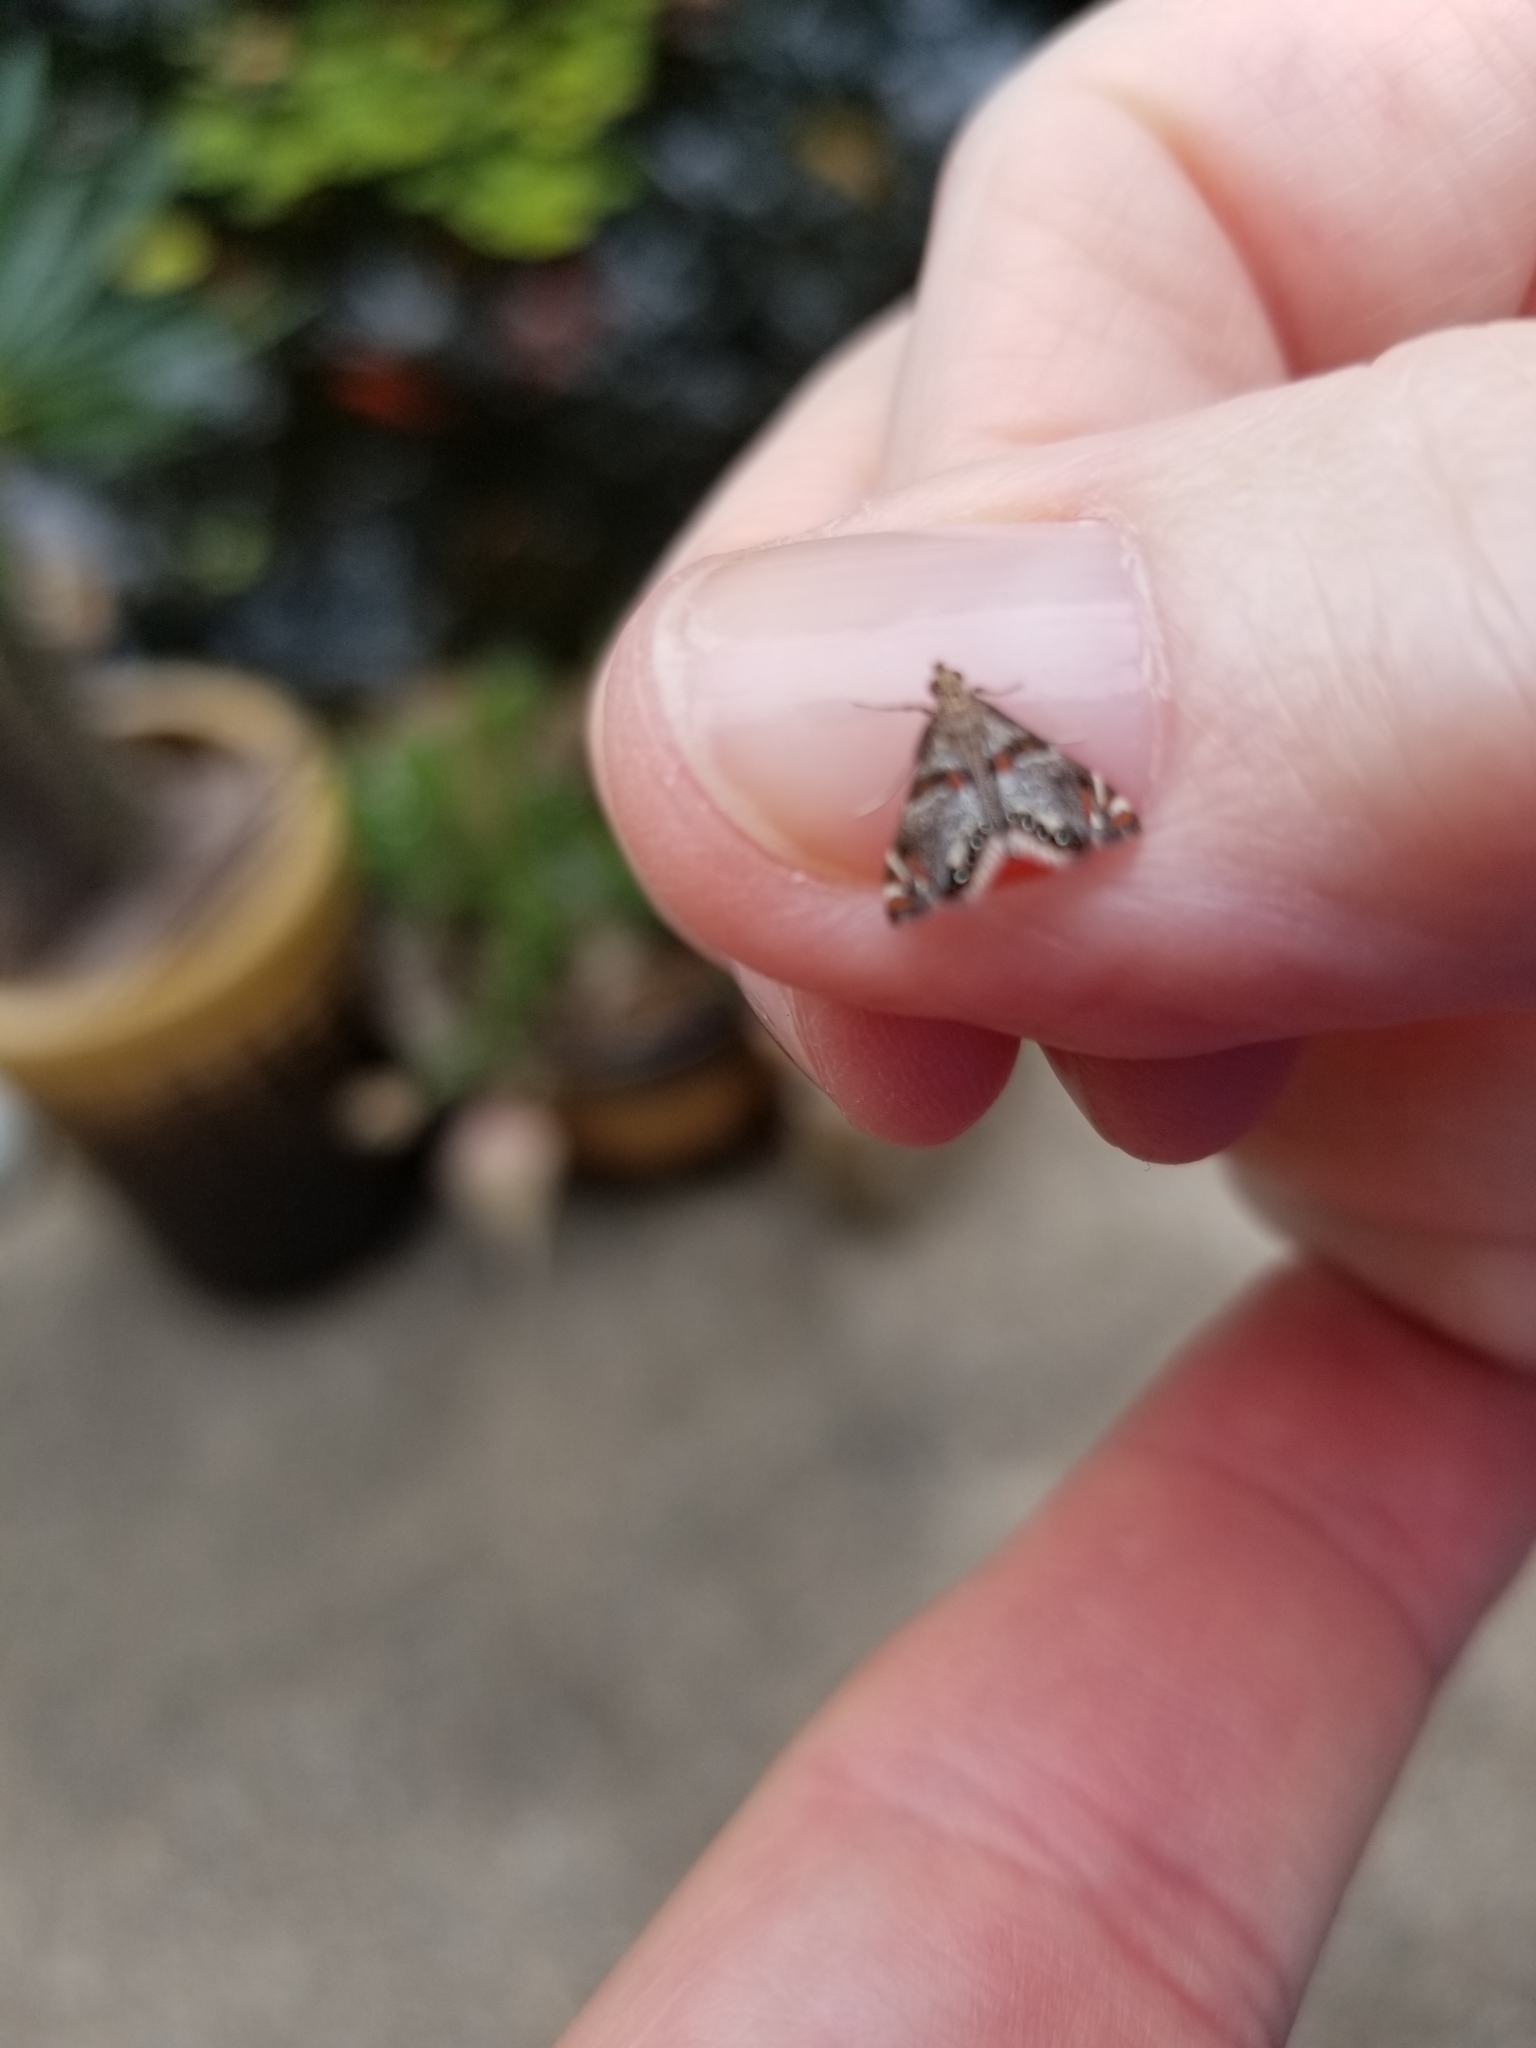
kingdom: Animalia
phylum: Arthropoda
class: Insecta
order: Lepidoptera
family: Crambidae
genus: Petrophila
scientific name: Petrophila jaliscalis
